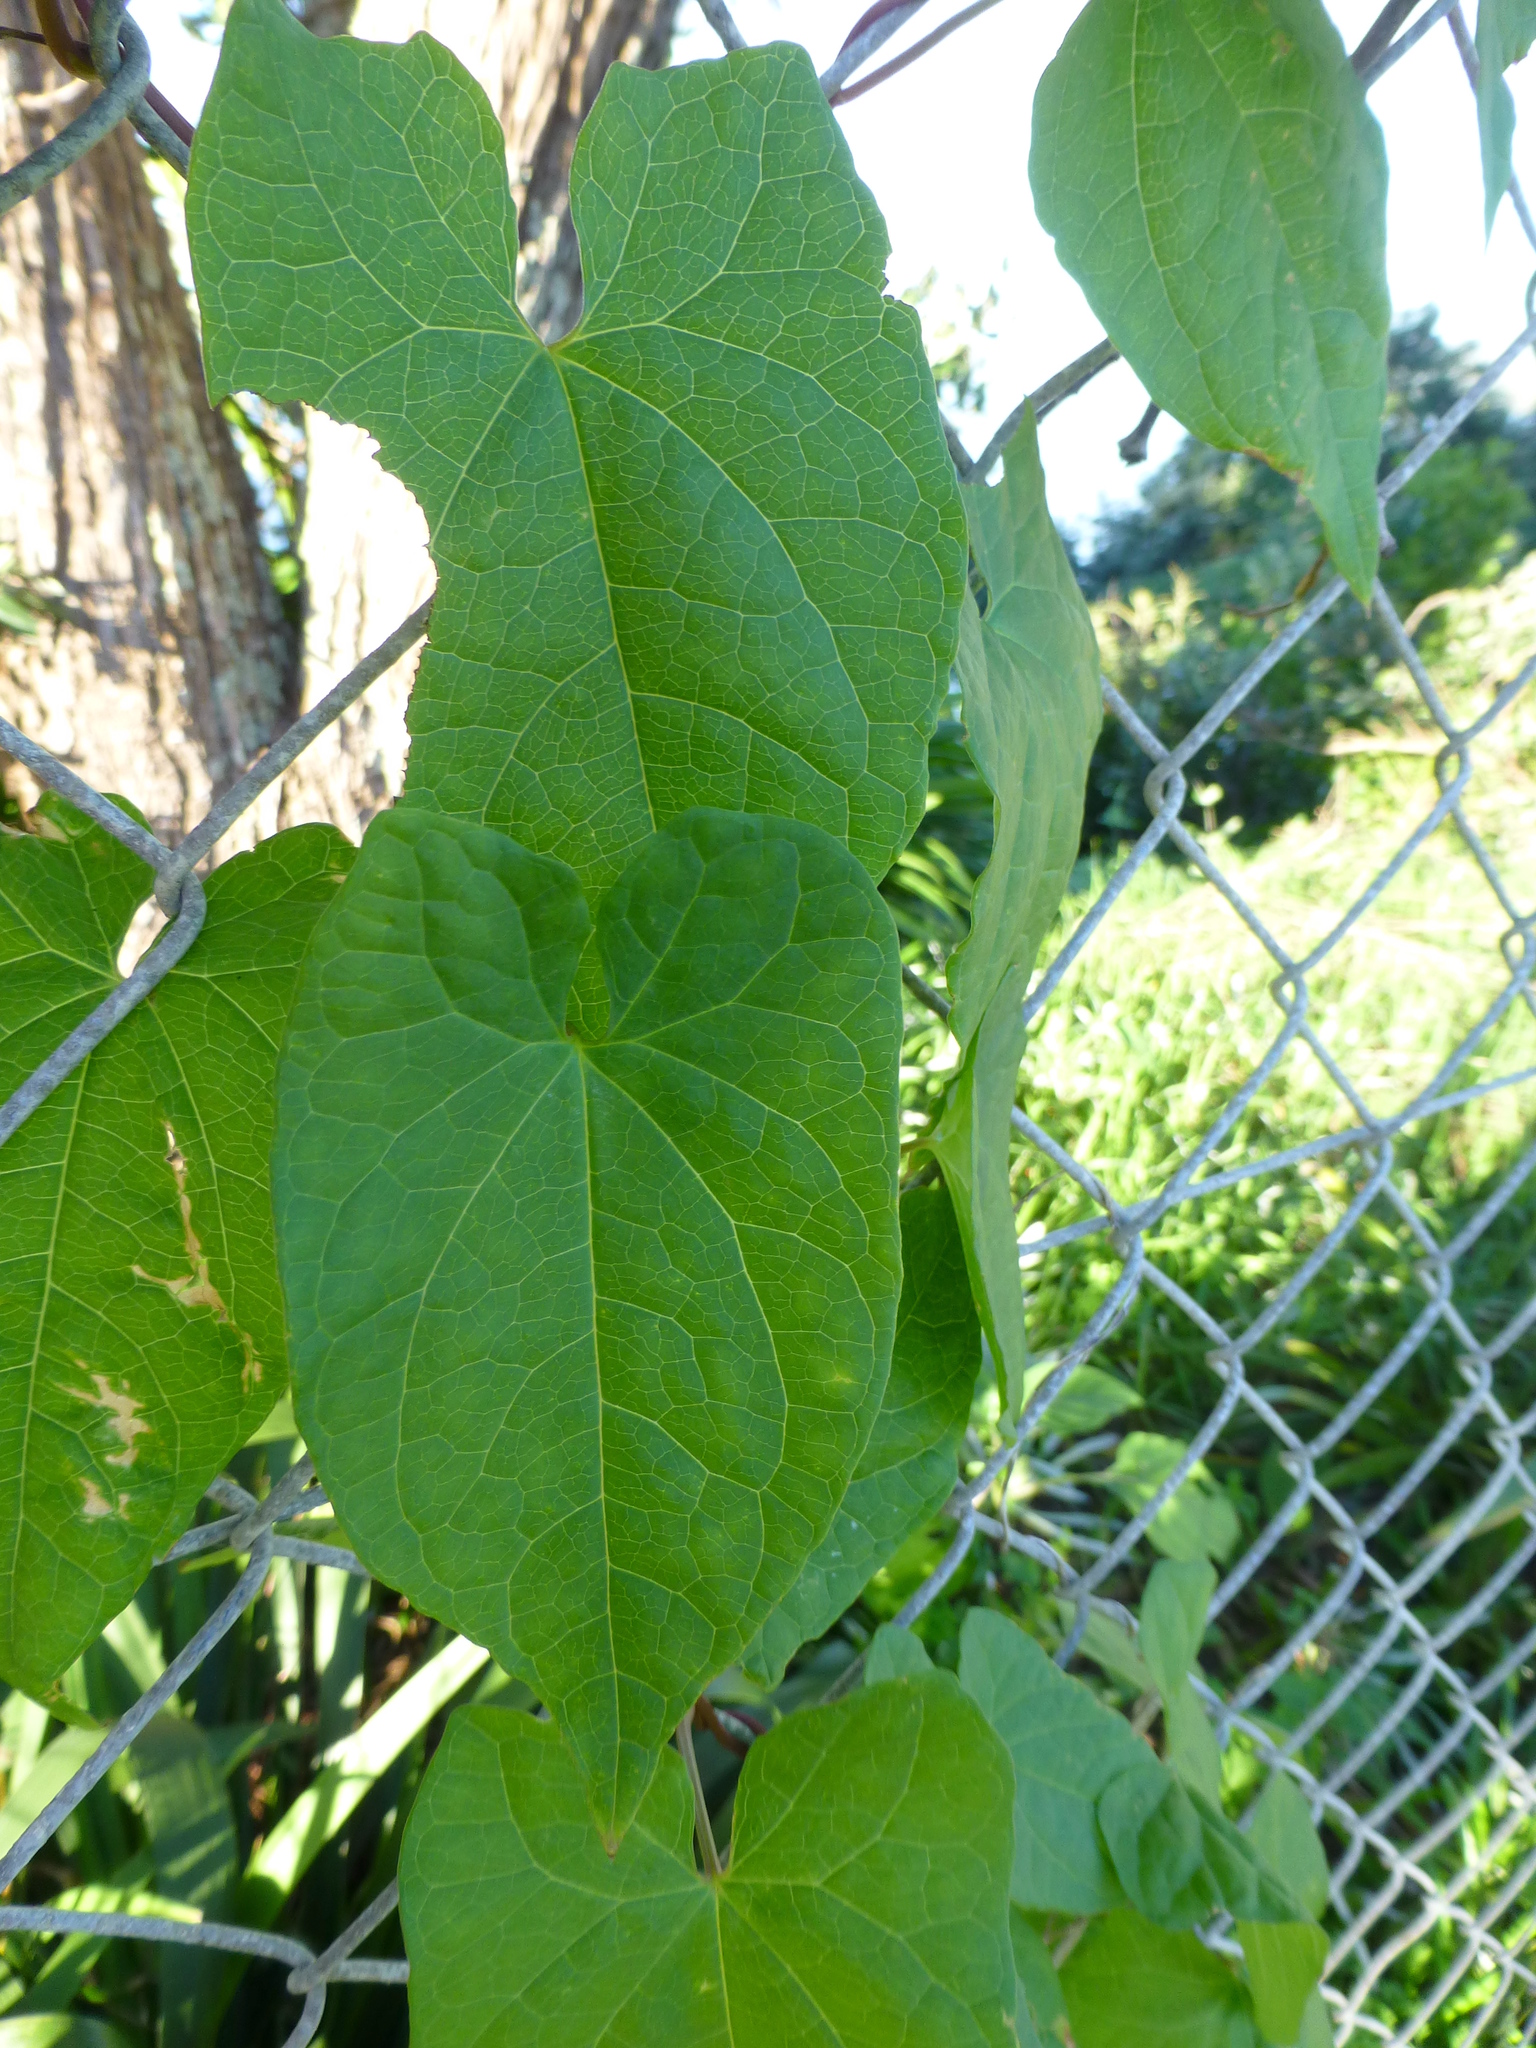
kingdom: Plantae
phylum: Tracheophyta
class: Magnoliopsida
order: Solanales
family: Convolvulaceae
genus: Calystegia
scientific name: Calystegia silvatica
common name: Large bindweed
